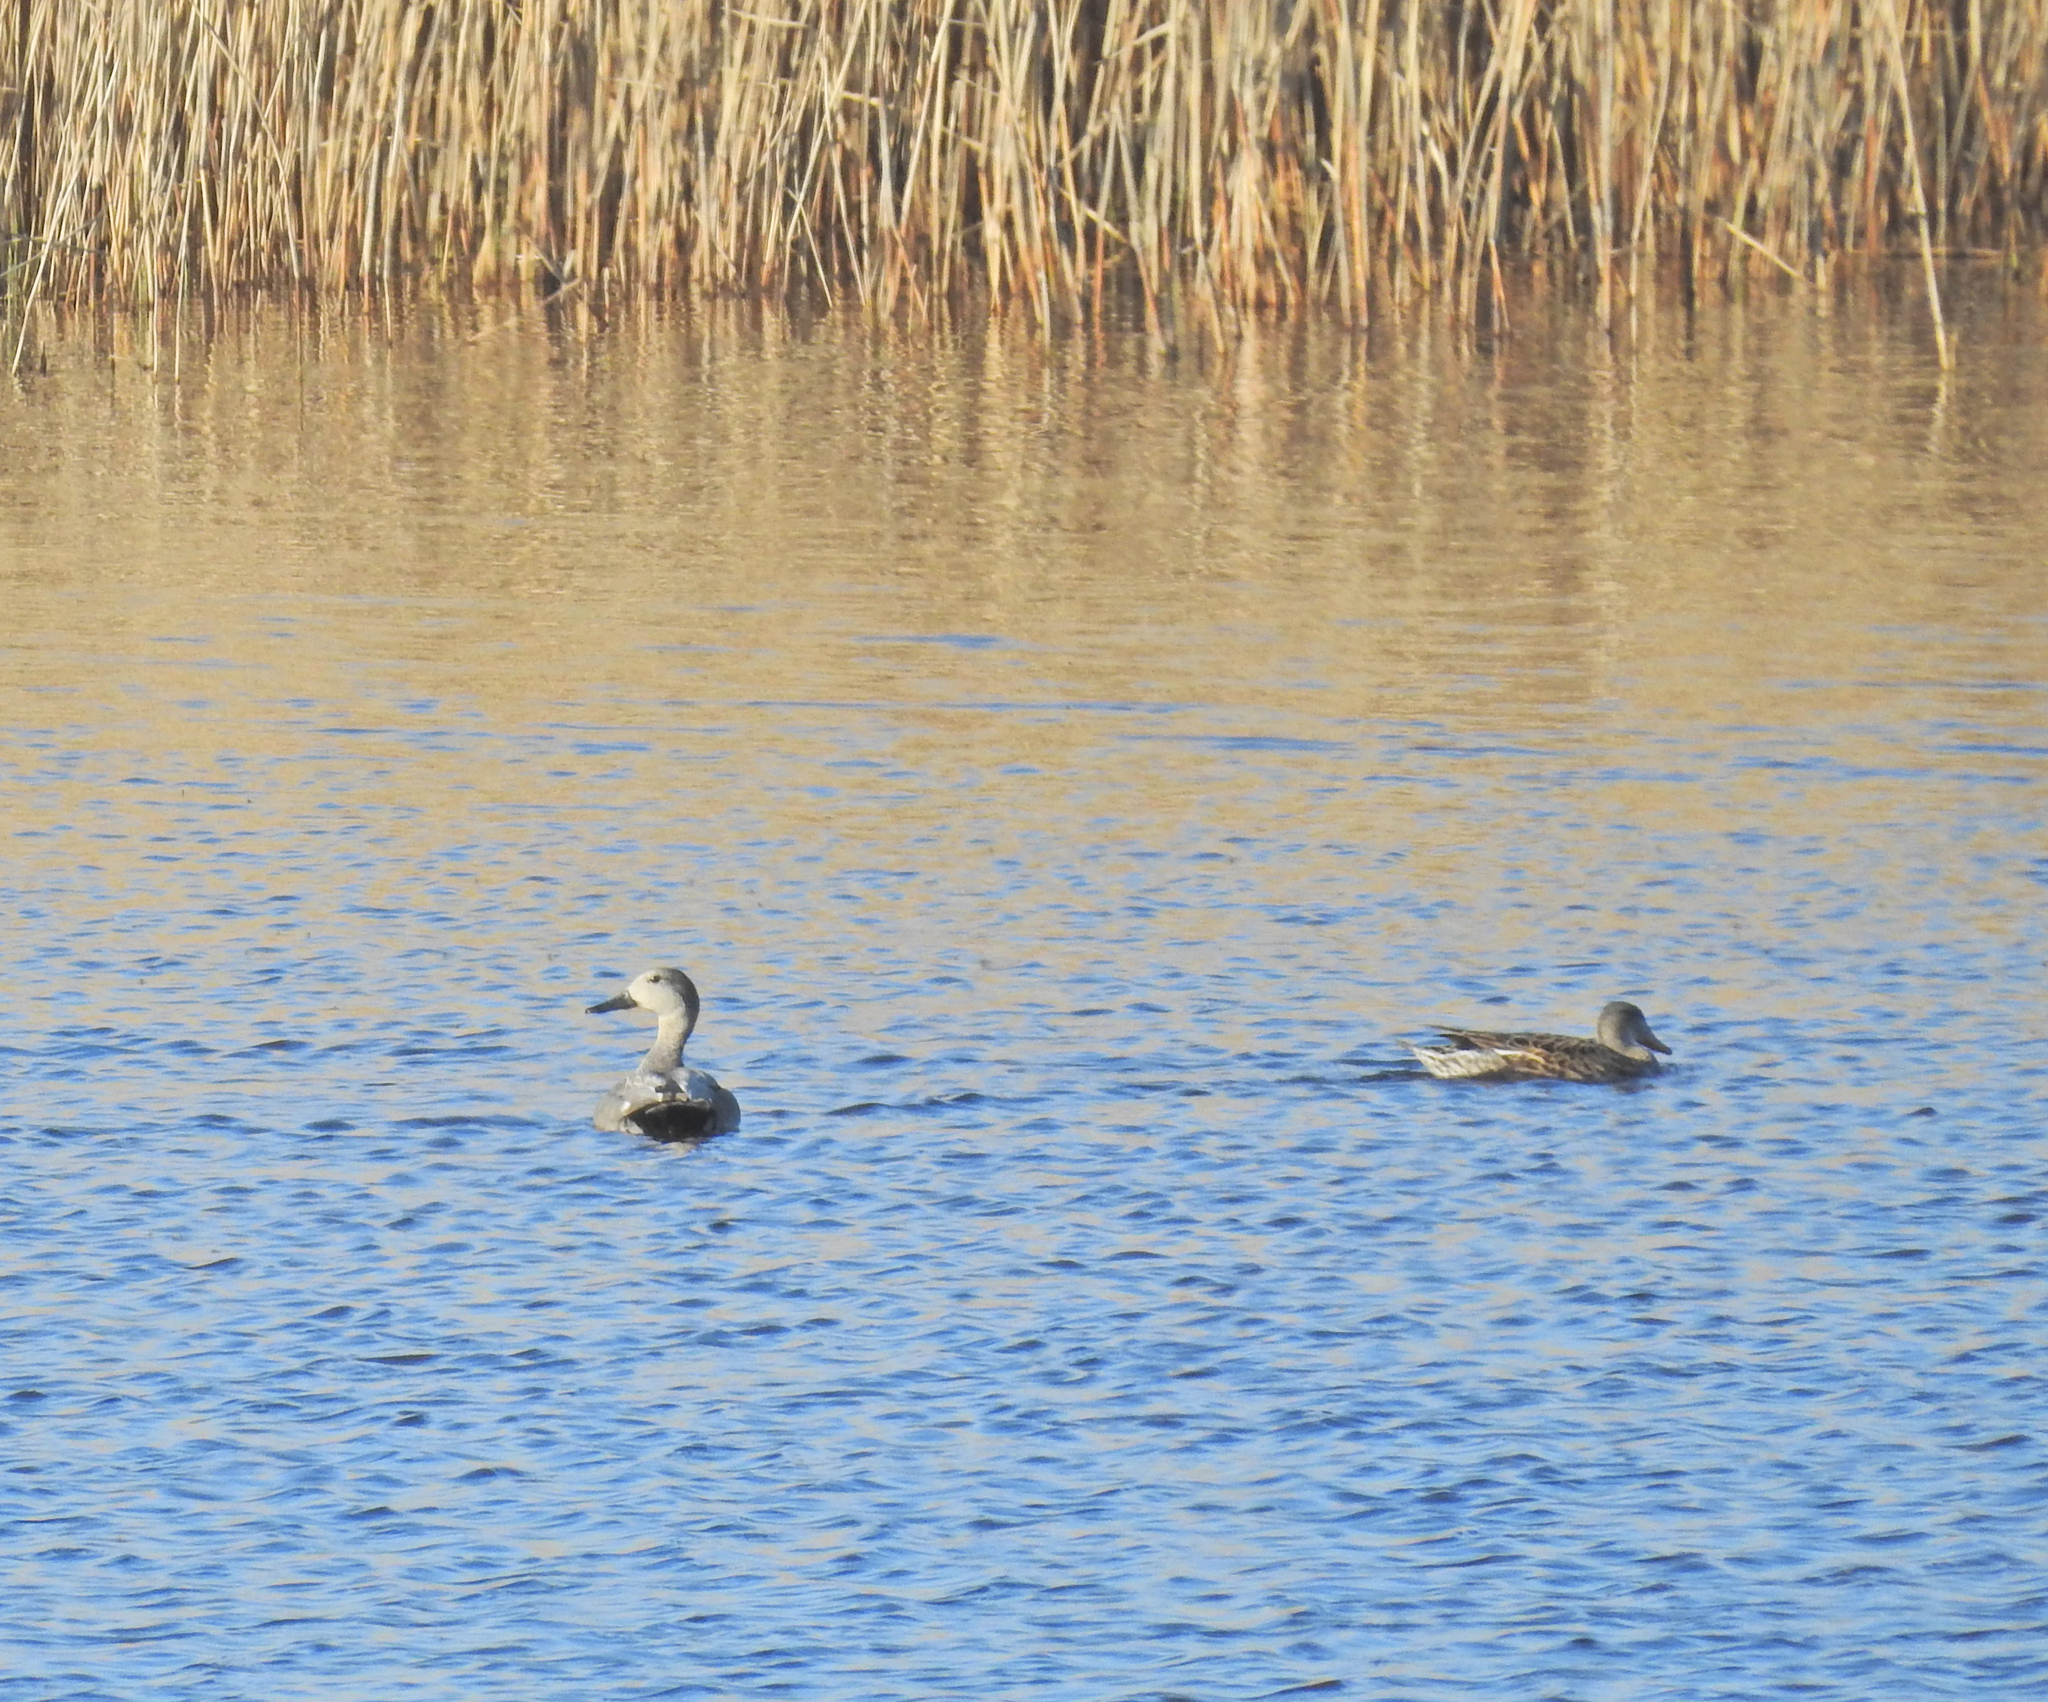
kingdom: Animalia
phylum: Chordata
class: Aves
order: Anseriformes
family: Anatidae
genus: Mareca
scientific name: Mareca strepera
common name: Gadwall
